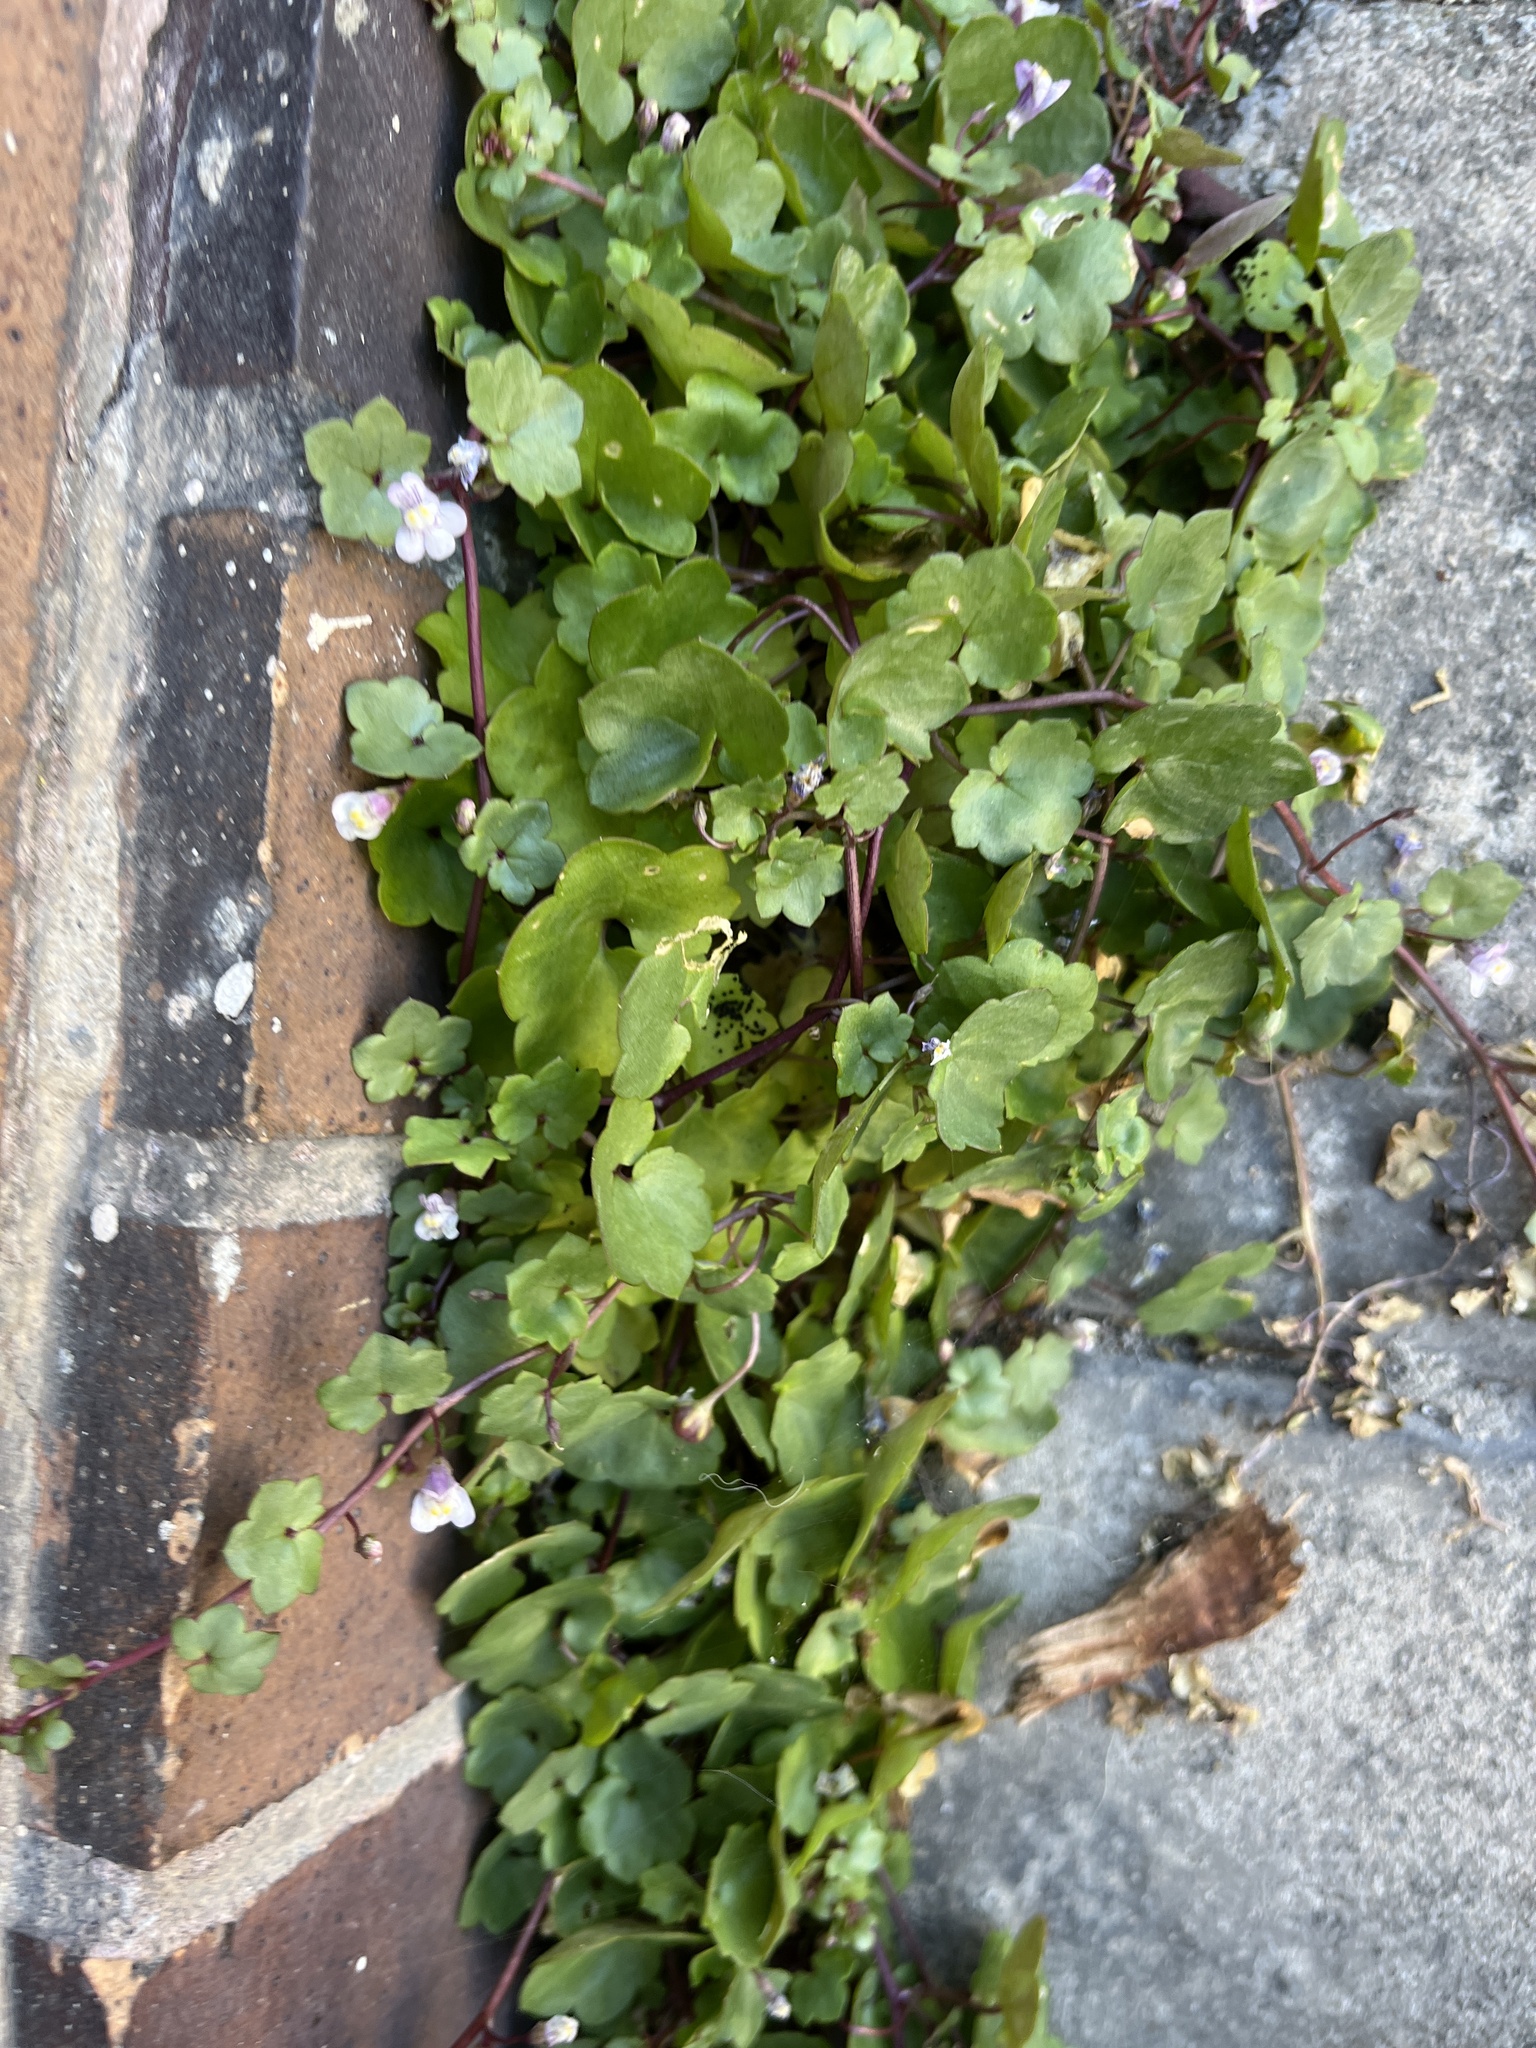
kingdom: Plantae
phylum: Tracheophyta
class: Magnoliopsida
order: Lamiales
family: Plantaginaceae
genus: Cymbalaria
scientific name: Cymbalaria muralis
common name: Ivy-leaved toadflax
